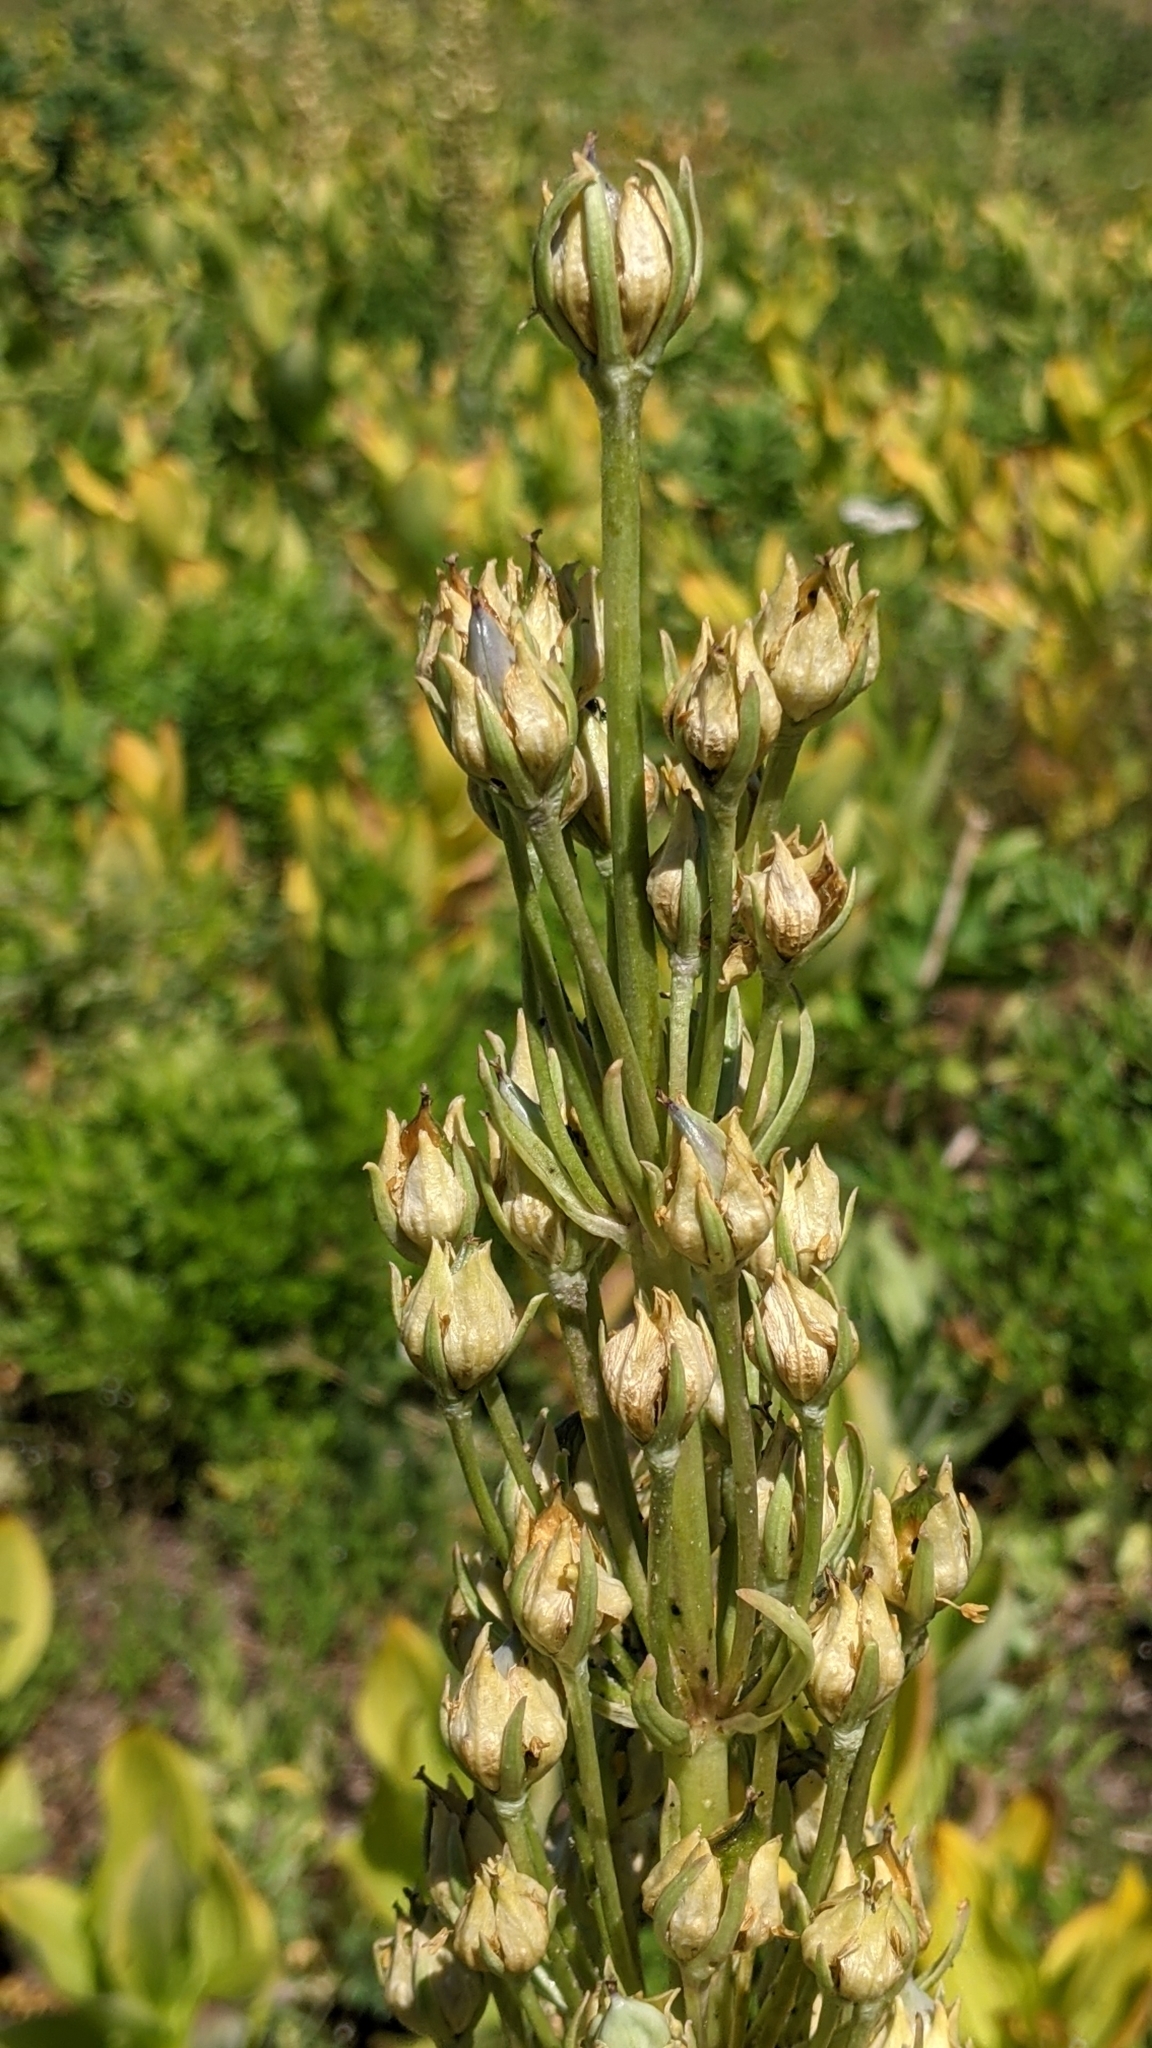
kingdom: Plantae
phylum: Tracheophyta
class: Magnoliopsida
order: Gentianales
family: Gentianaceae
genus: Frasera
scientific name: Frasera speciosa
